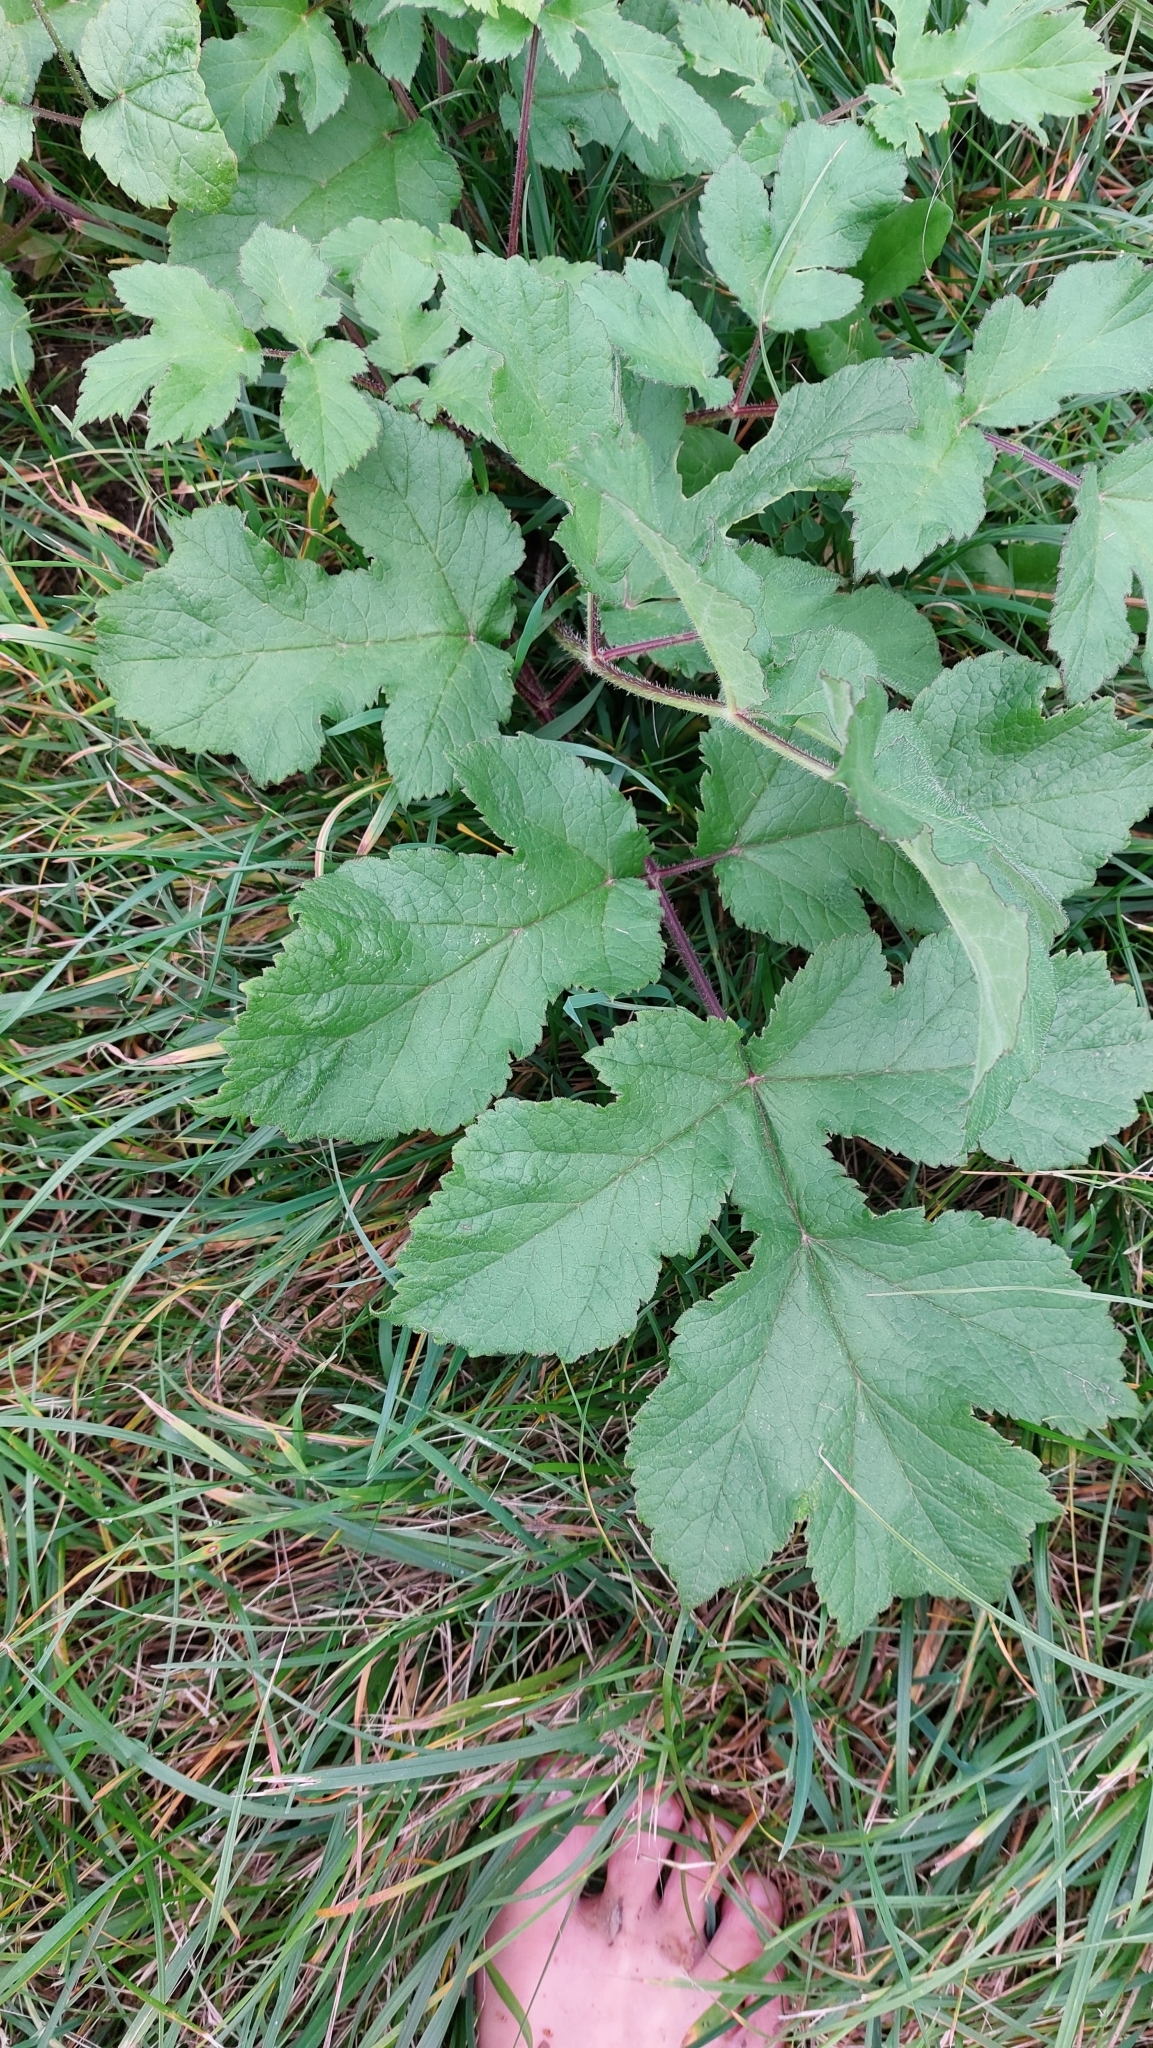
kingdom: Plantae
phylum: Tracheophyta
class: Magnoliopsida
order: Apiales
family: Apiaceae
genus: Heracleum
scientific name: Heracleum sphondylium
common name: Hogweed
